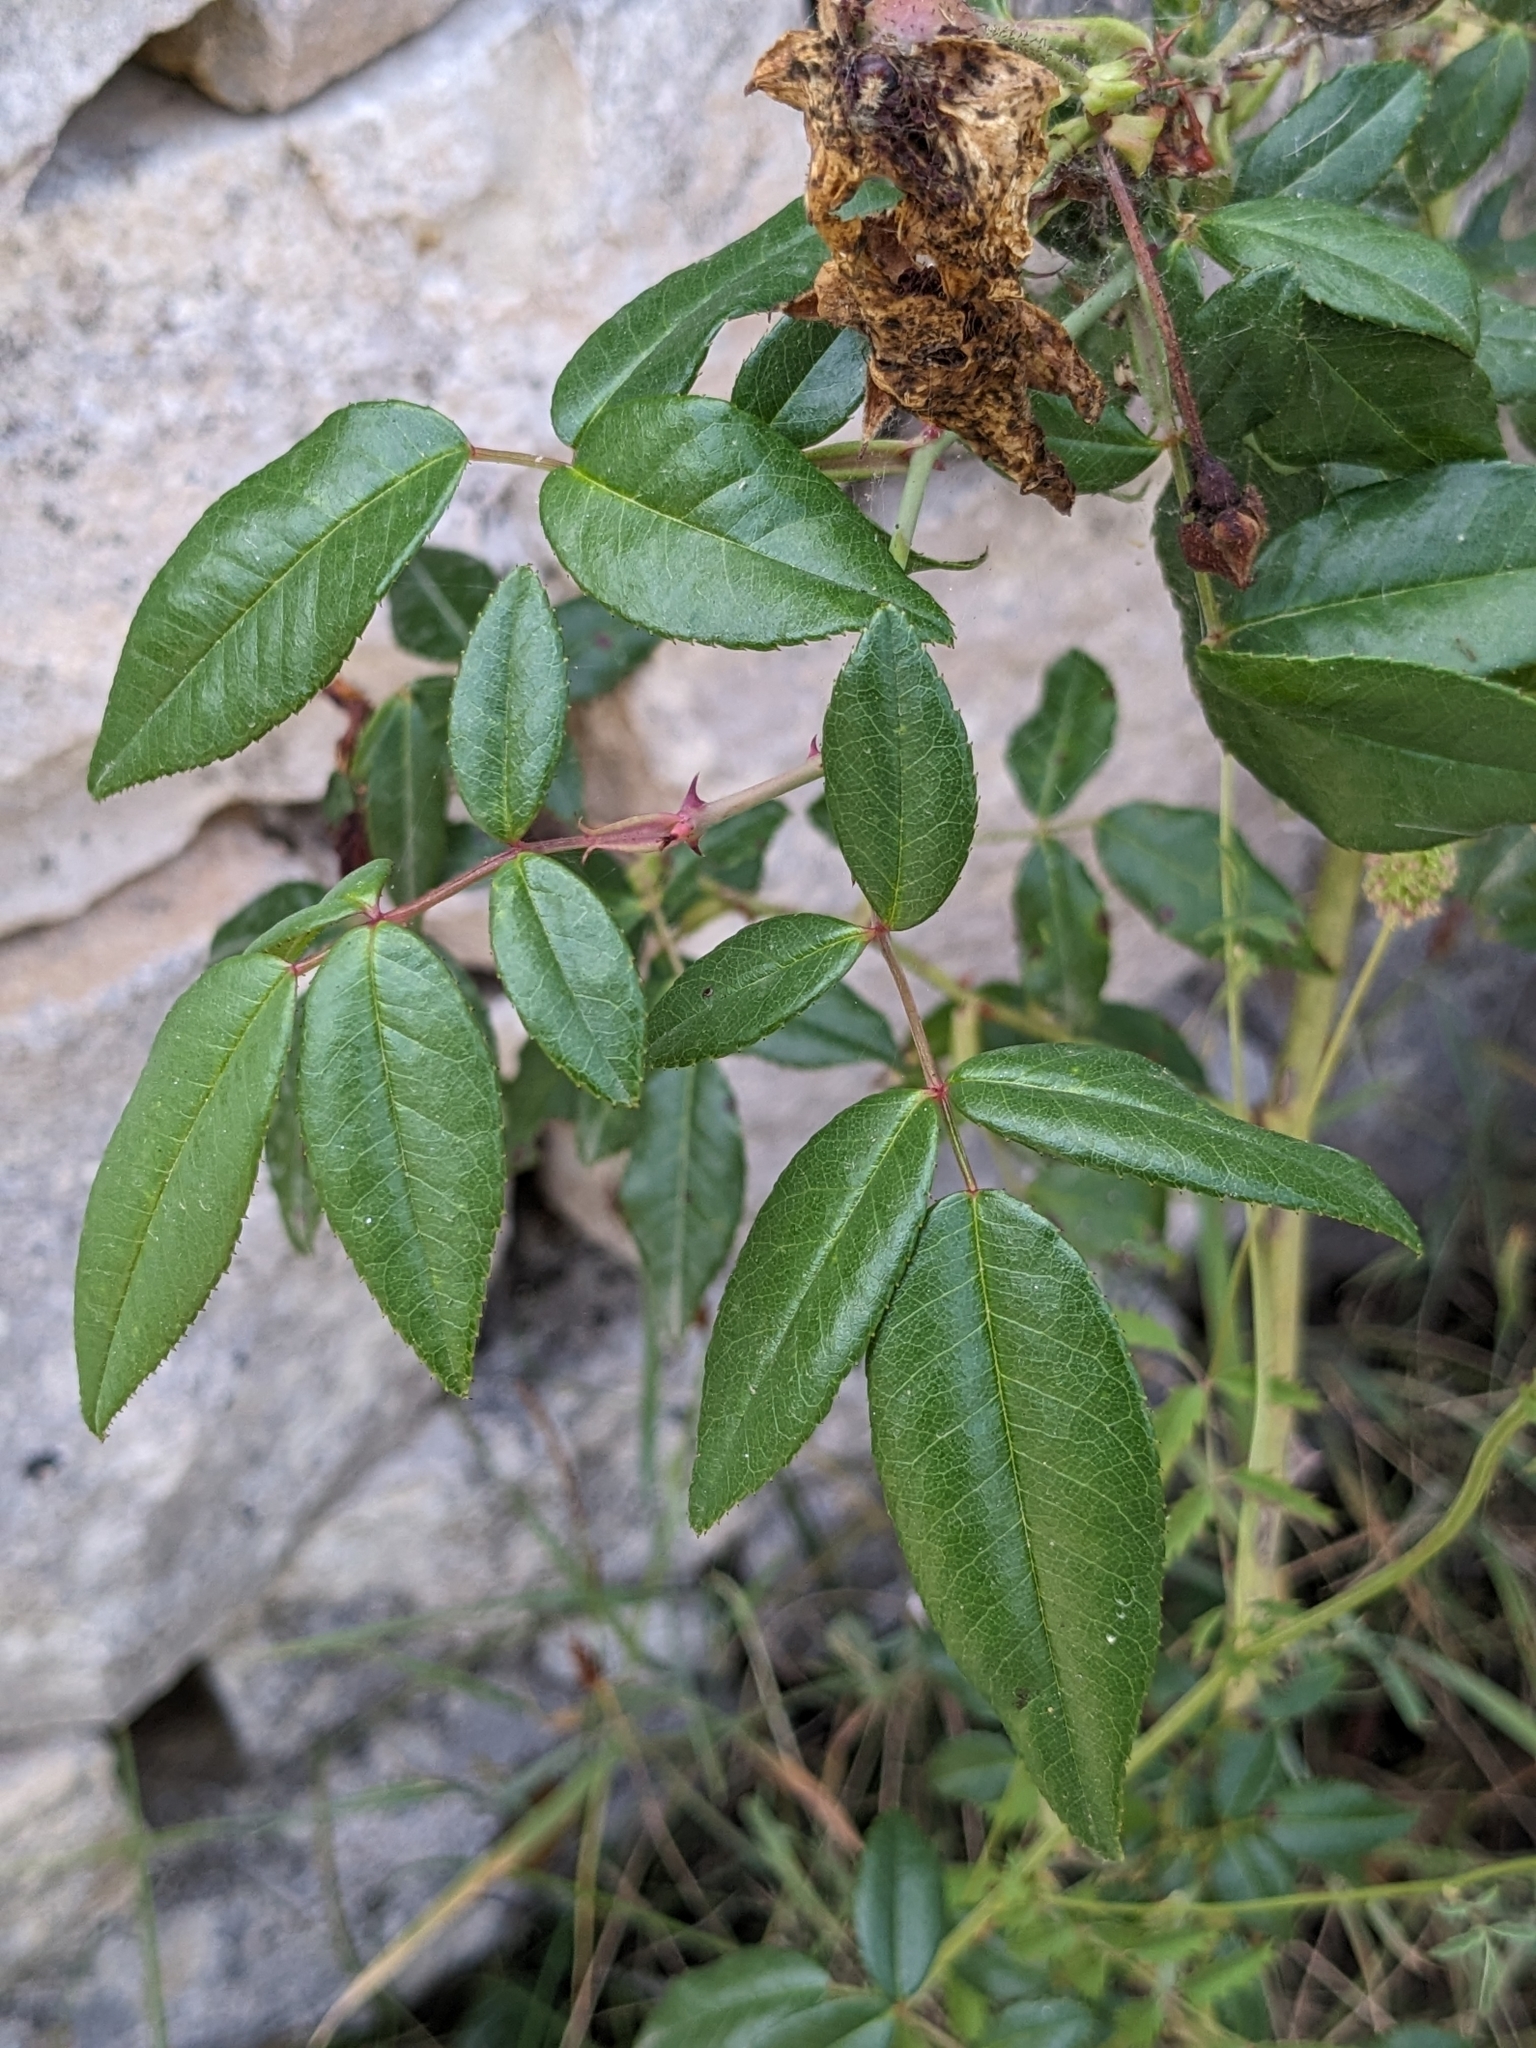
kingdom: Plantae
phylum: Tracheophyta
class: Magnoliopsida
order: Rosales
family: Rosaceae
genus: Rosa
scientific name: Rosa sempervirens
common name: Evergreen rose
